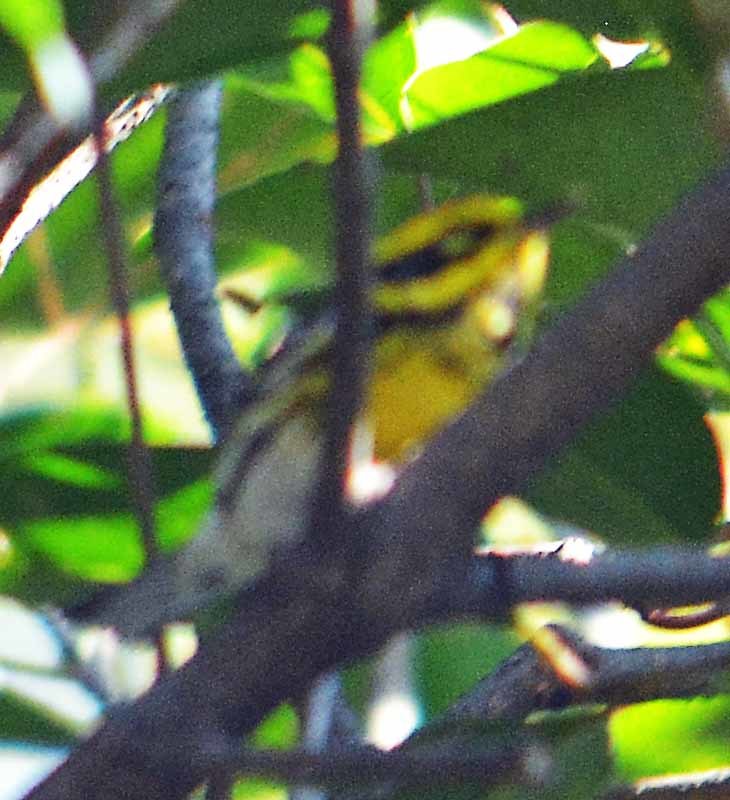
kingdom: Animalia
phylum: Chordata
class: Aves
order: Passeriformes
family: Parulidae
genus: Setophaga
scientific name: Setophaga townsendi
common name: Townsend's warbler
